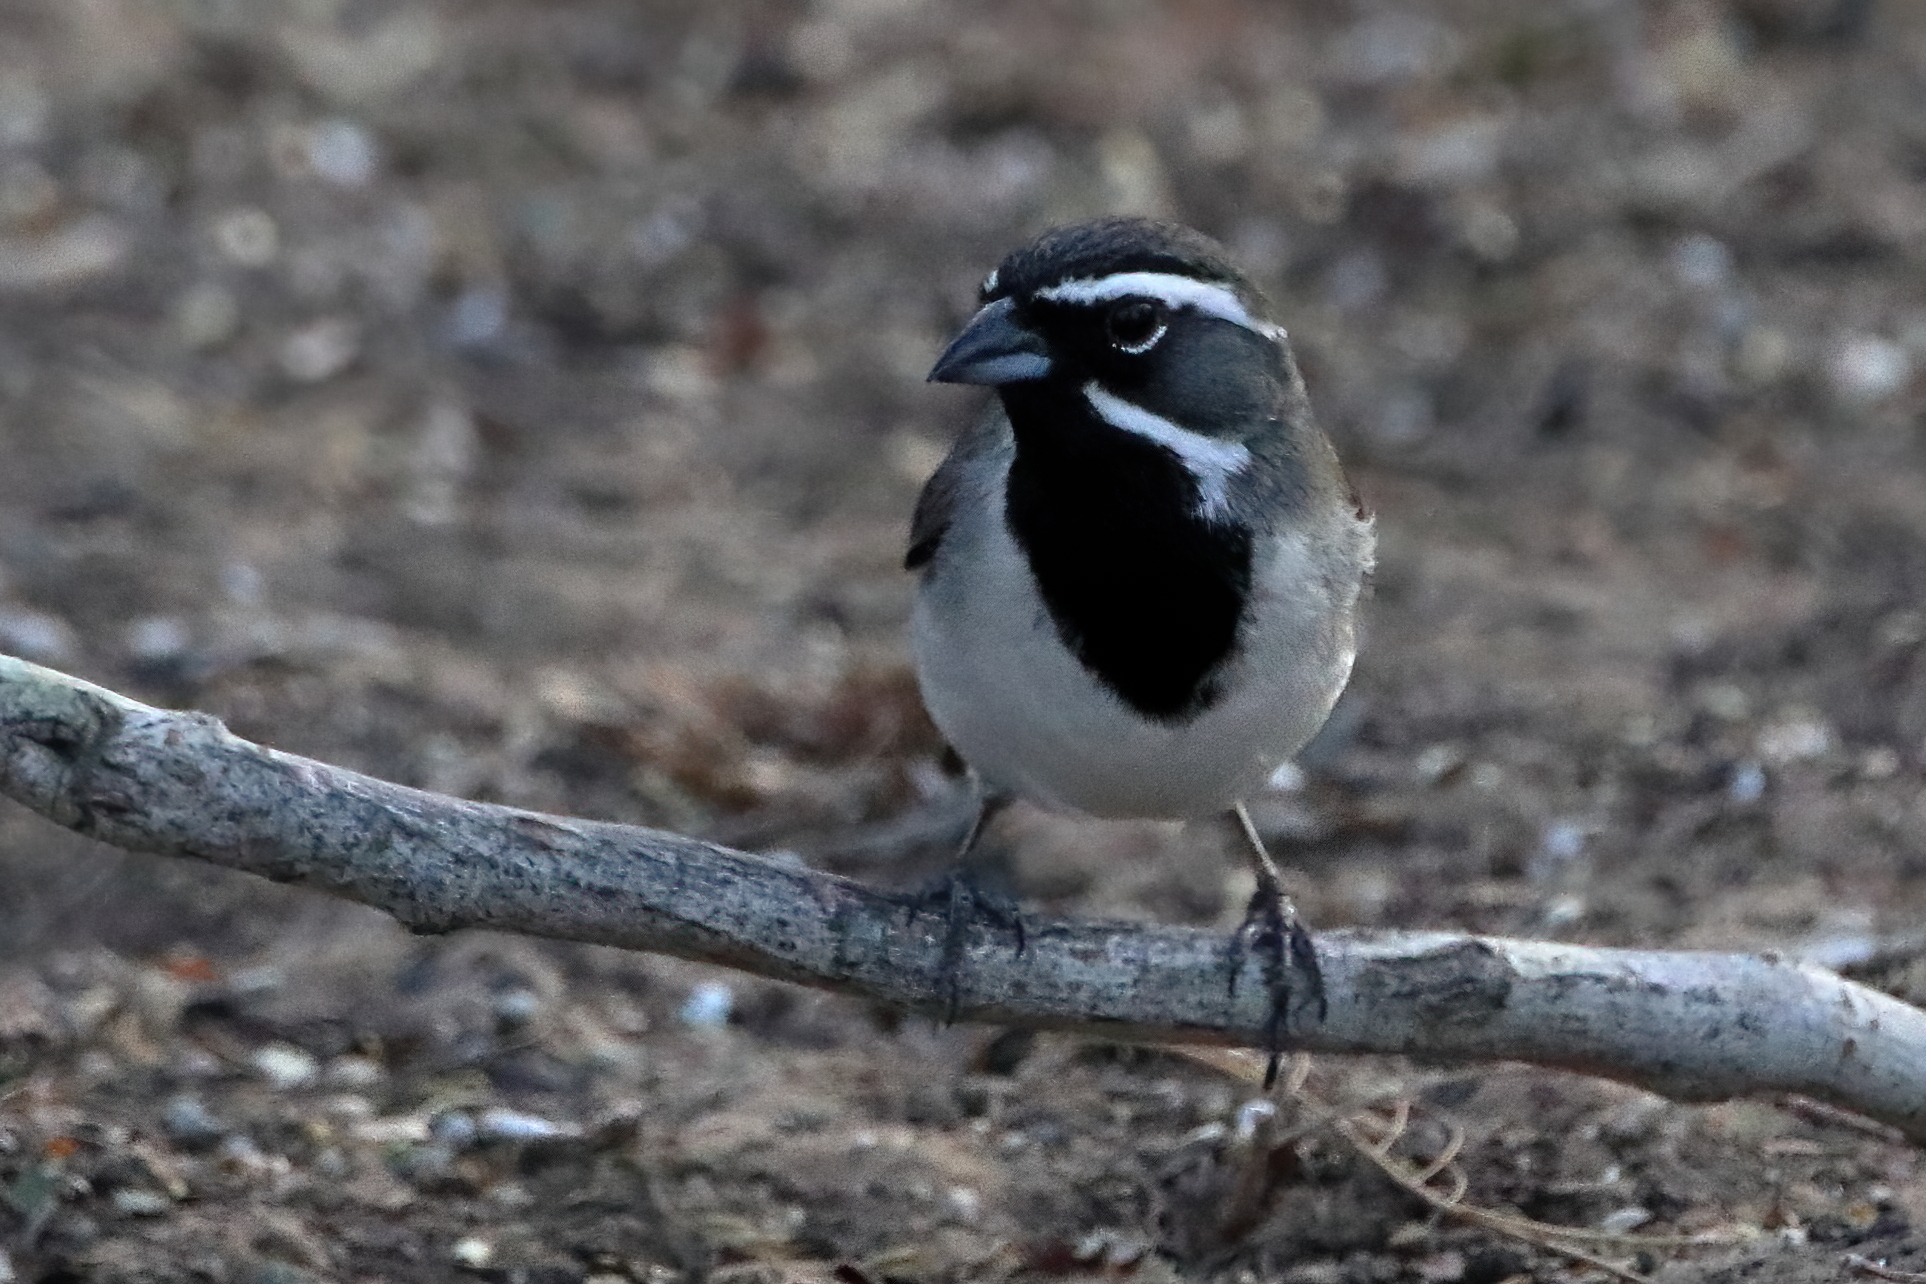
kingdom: Animalia
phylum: Chordata
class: Aves
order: Passeriformes
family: Passerellidae
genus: Amphispiza
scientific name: Amphispiza bilineata
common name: Black-throated sparrow
